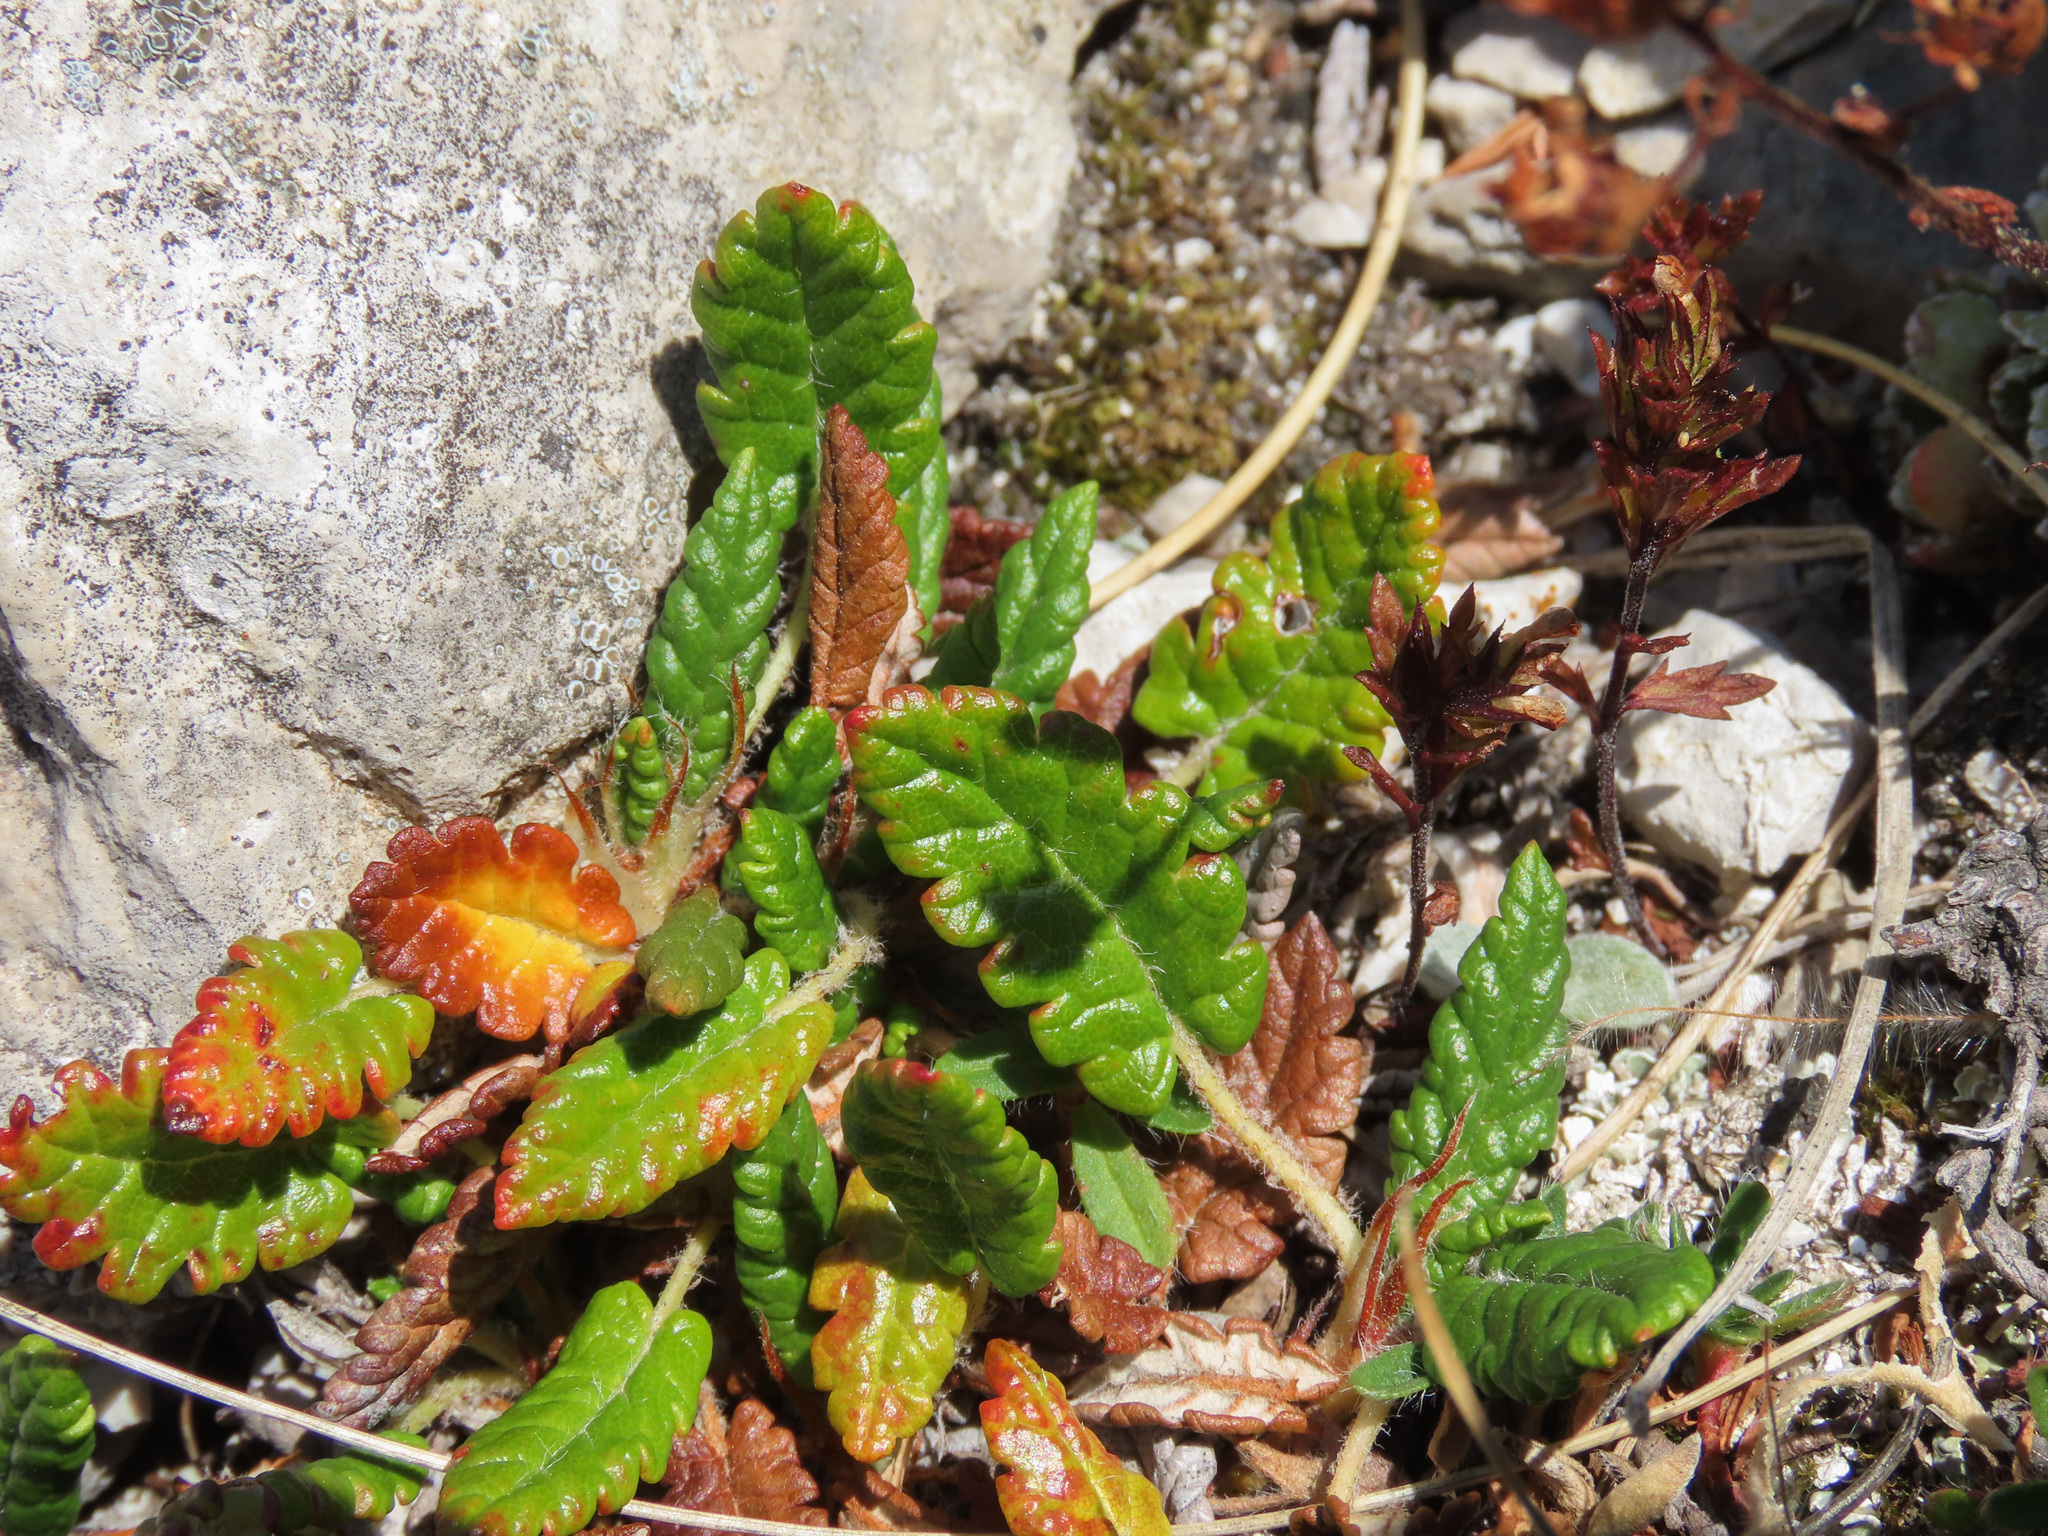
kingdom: Plantae
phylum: Tracheophyta
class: Magnoliopsida
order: Rosales
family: Rosaceae
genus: Dryas
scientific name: Dryas octopetala
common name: Eight-petal mountain-avens
